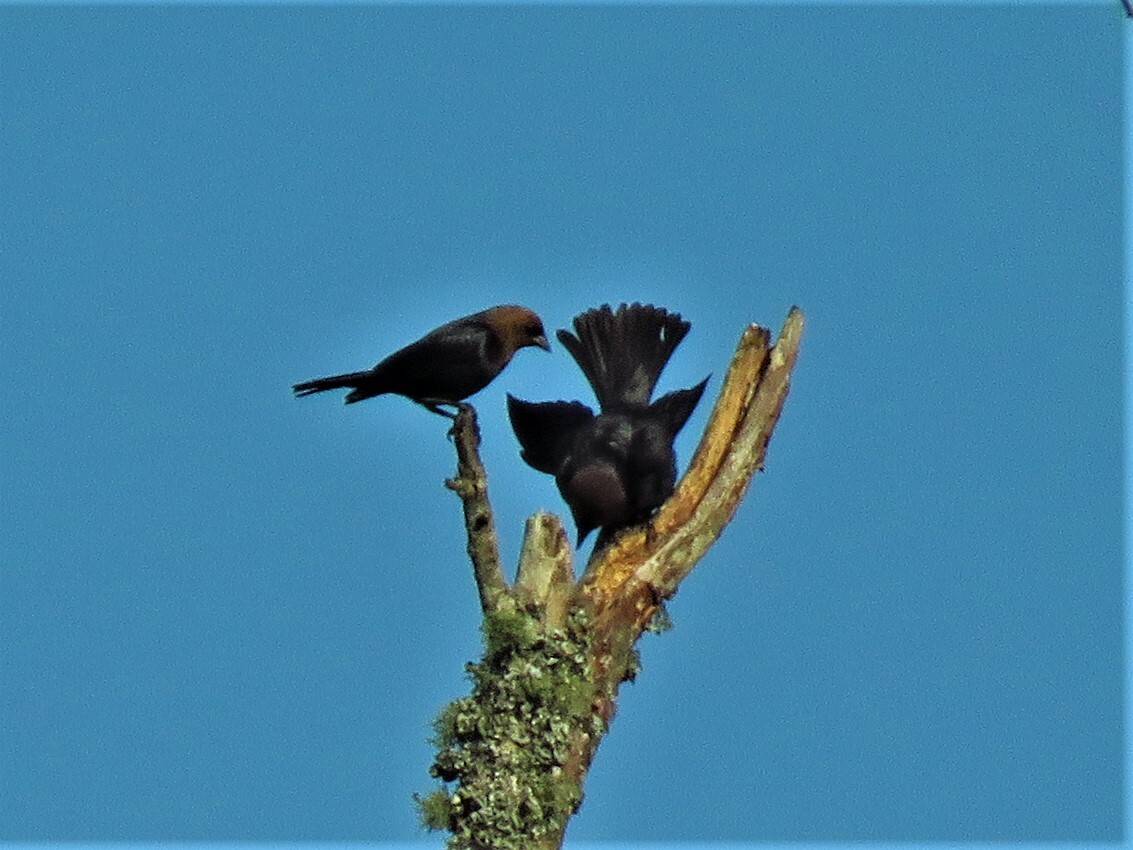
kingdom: Animalia
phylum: Chordata
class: Aves
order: Passeriformes
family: Icteridae
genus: Molothrus
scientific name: Molothrus ater
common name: Brown-headed cowbird
